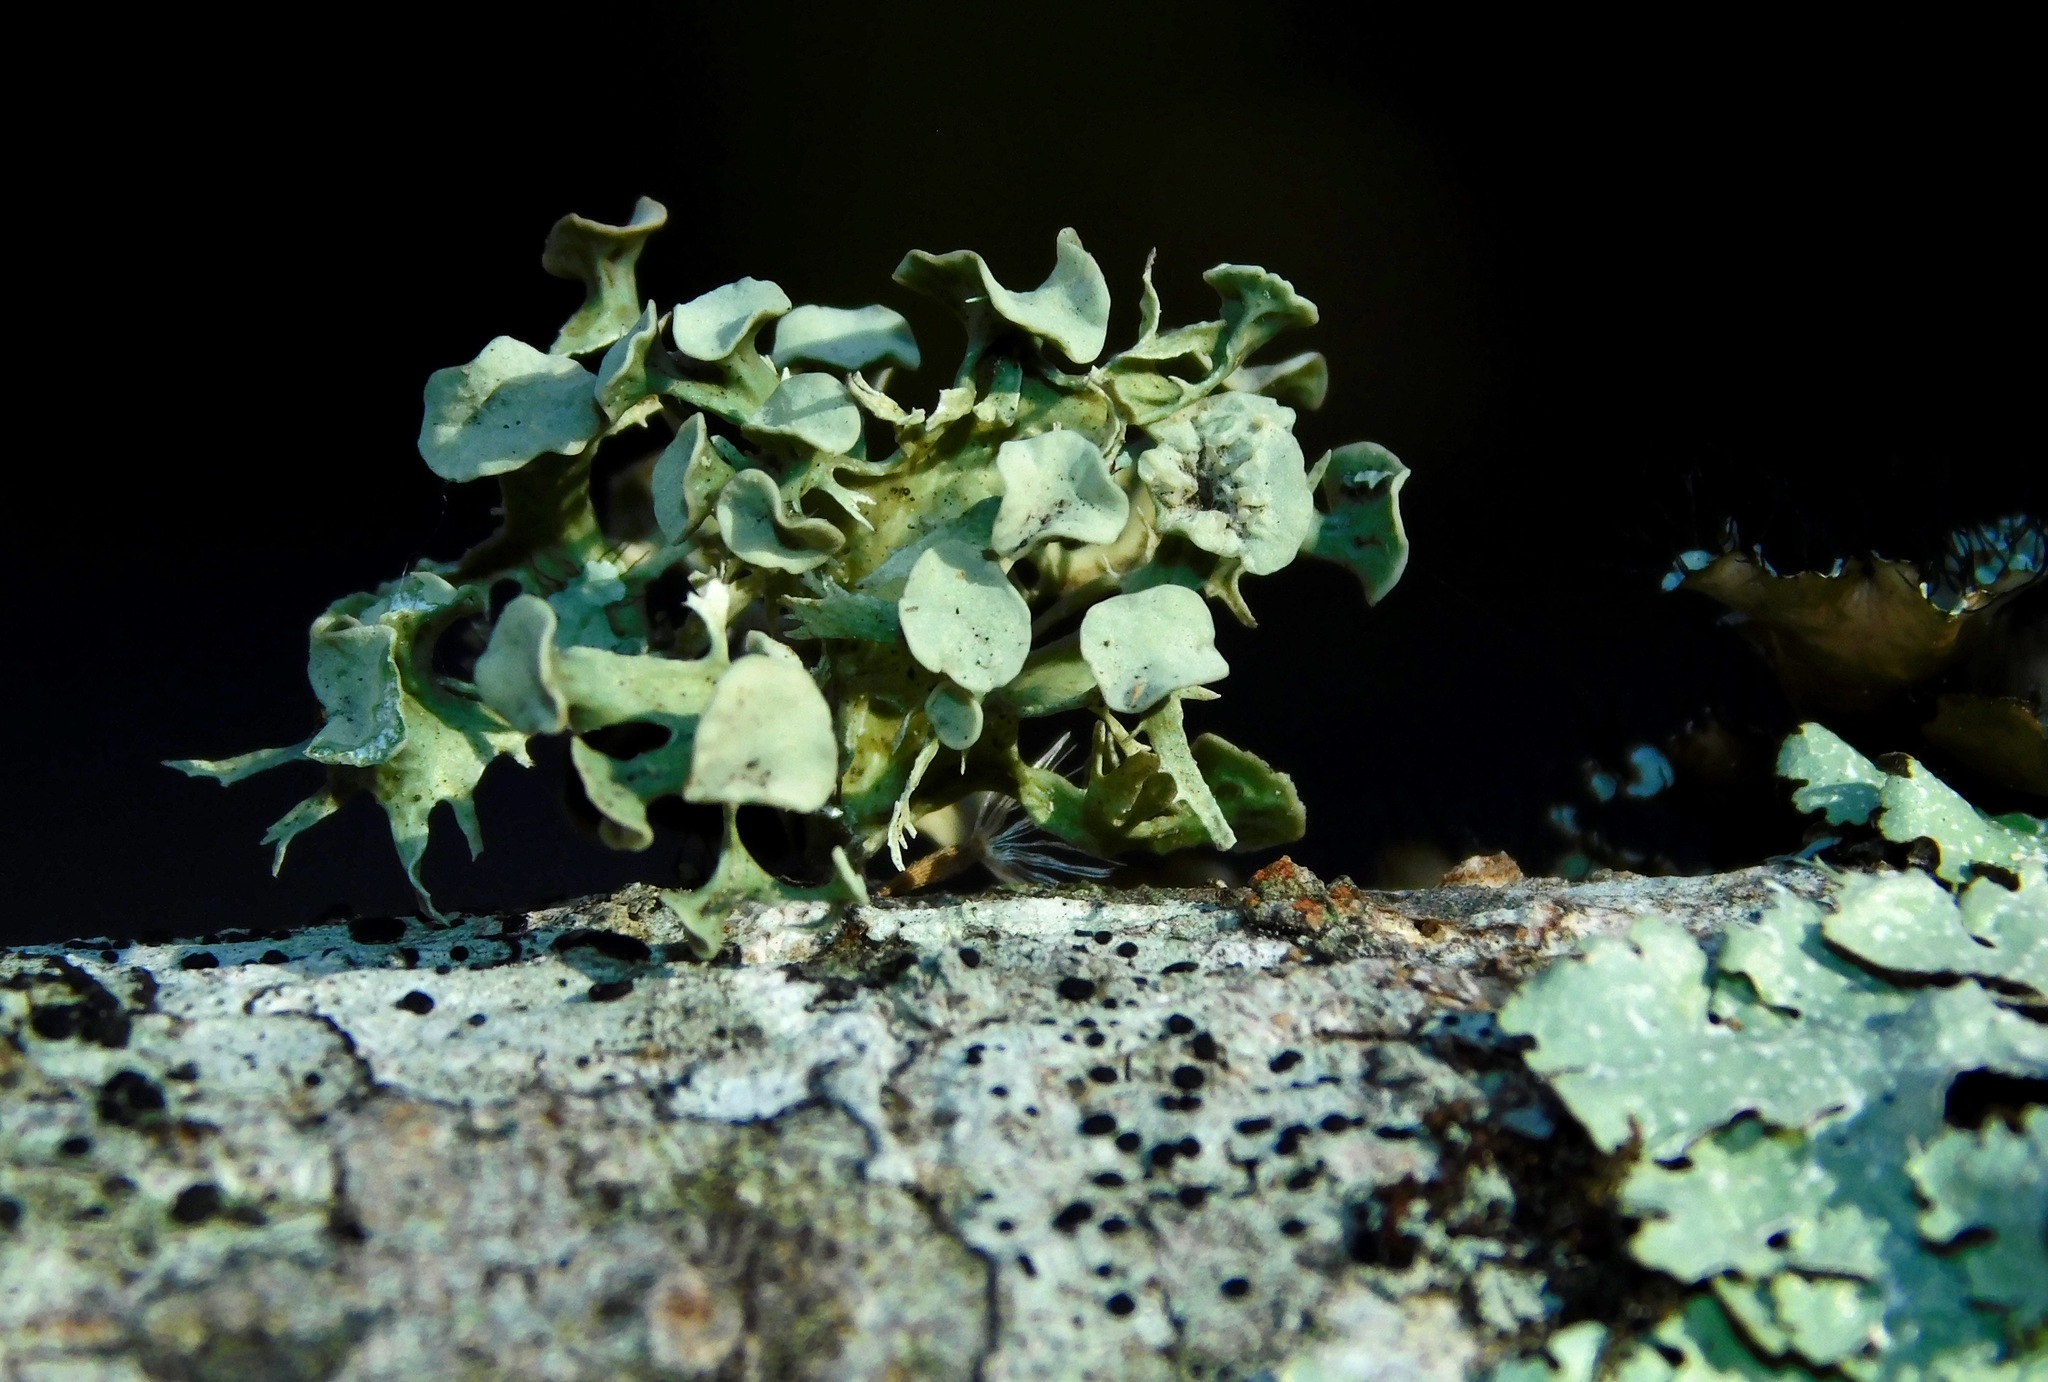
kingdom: Fungi
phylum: Ascomycota
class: Lecanoromycetes
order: Lecanorales
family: Ramalinaceae
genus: Ramalina
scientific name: Ramalina americana
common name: Sinewed bush lichen
